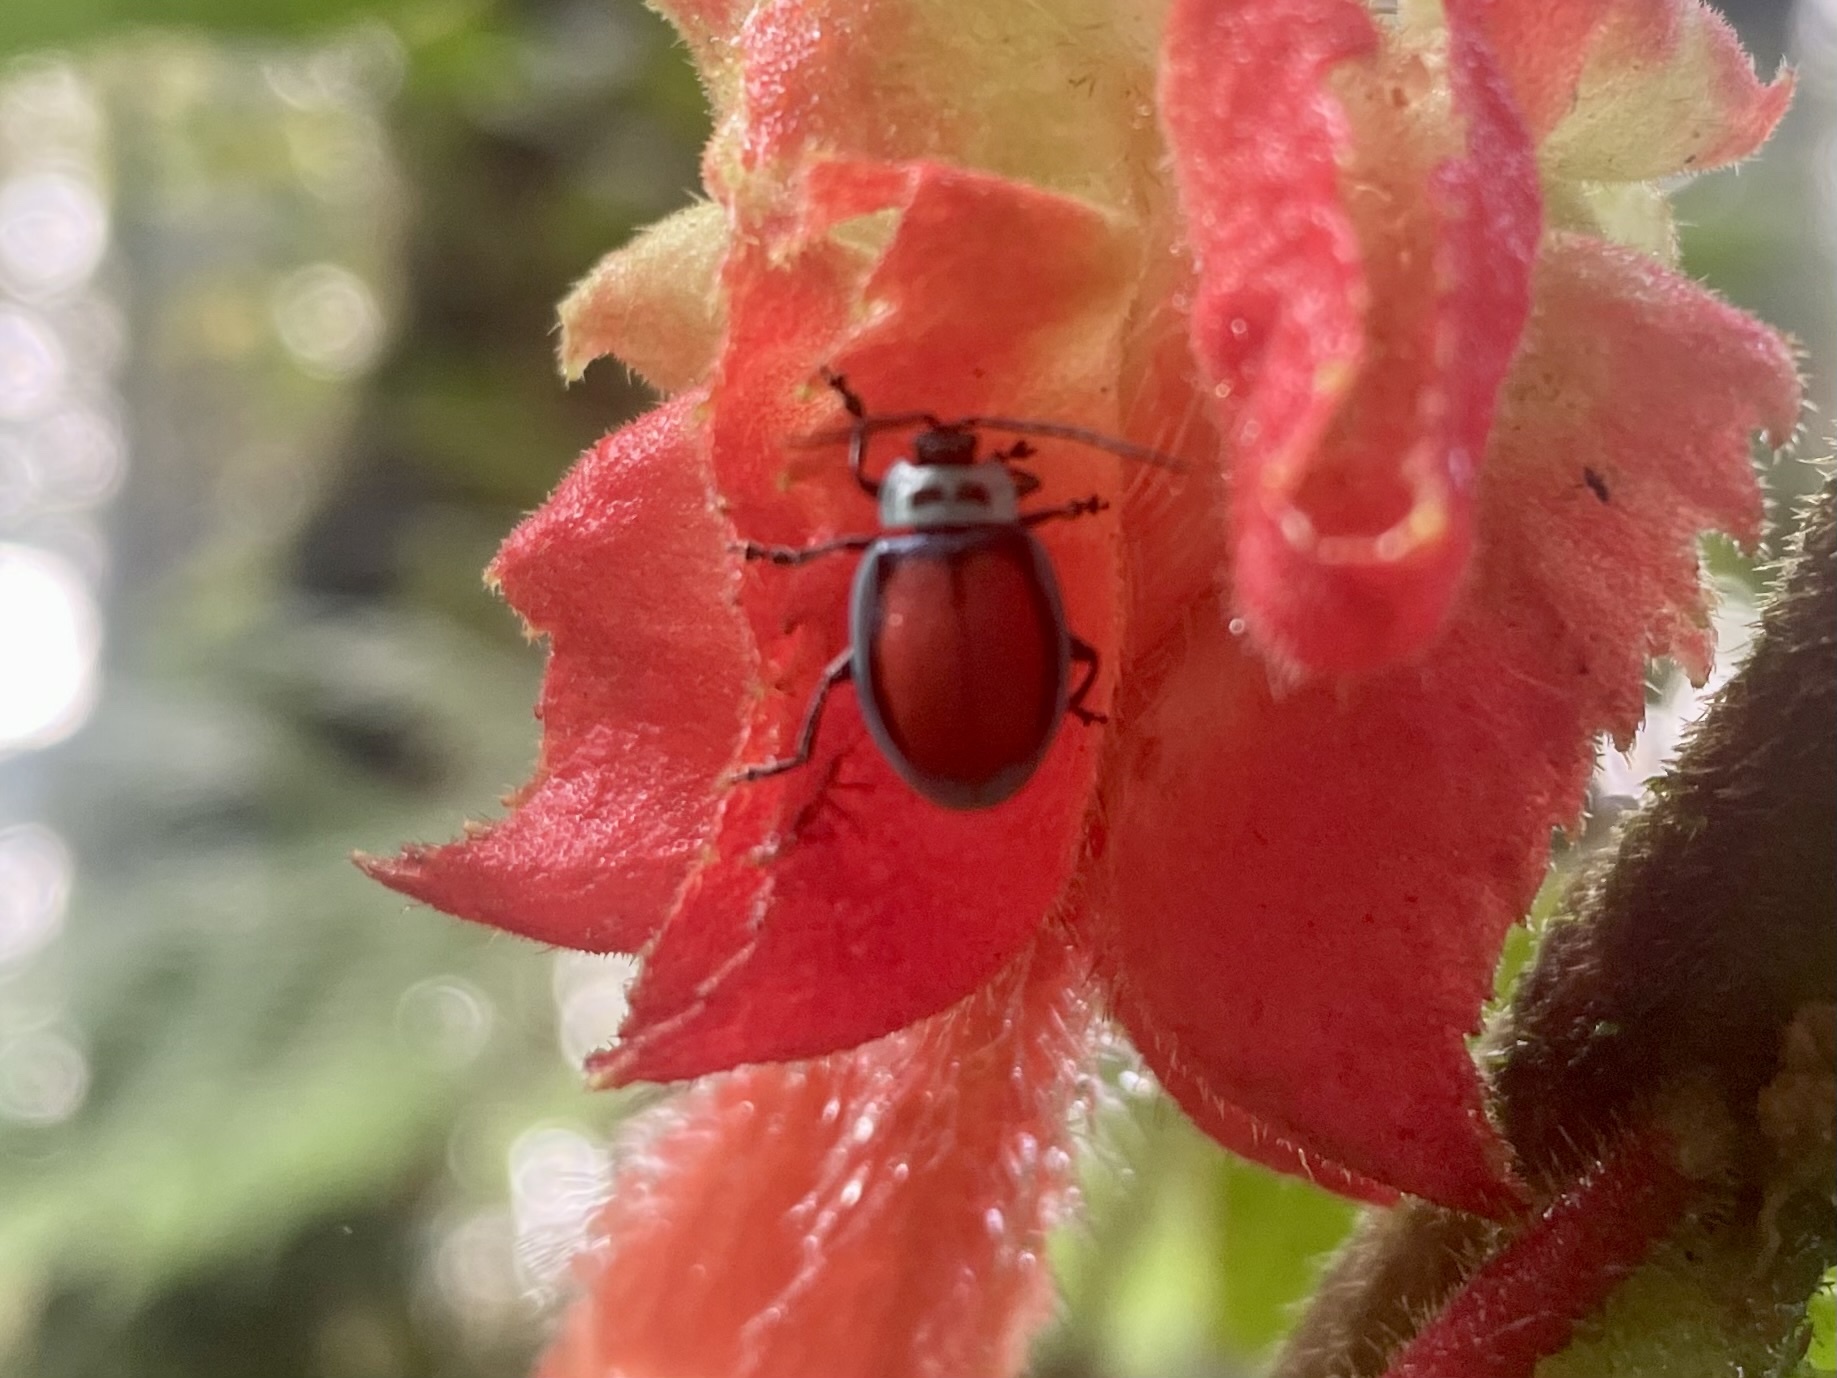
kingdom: Animalia
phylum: Arthropoda
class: Insecta
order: Coleoptera
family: Chrysomelidae
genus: Aspicela
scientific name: Aspicela
